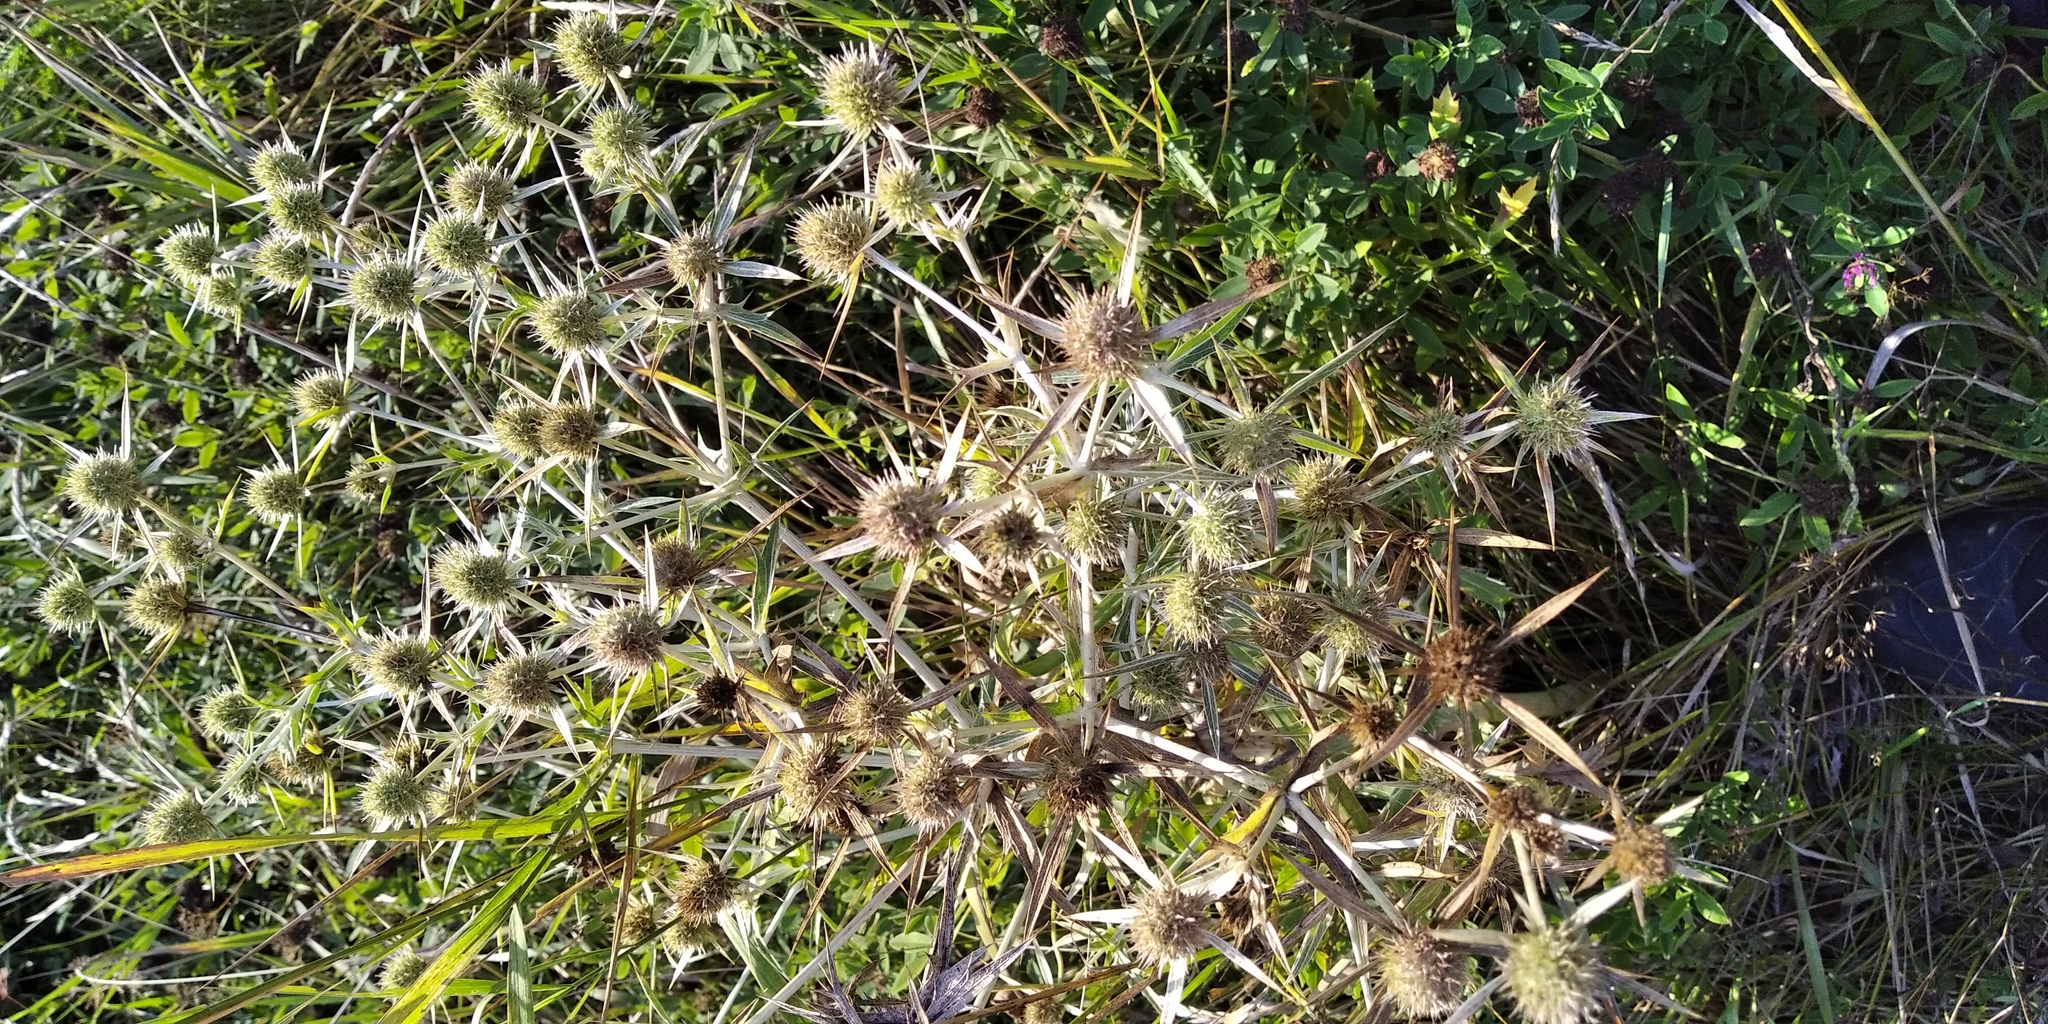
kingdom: Plantae
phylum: Tracheophyta
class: Magnoliopsida
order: Apiales
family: Apiaceae
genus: Eryngium
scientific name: Eryngium campestre
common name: Field eryngo
